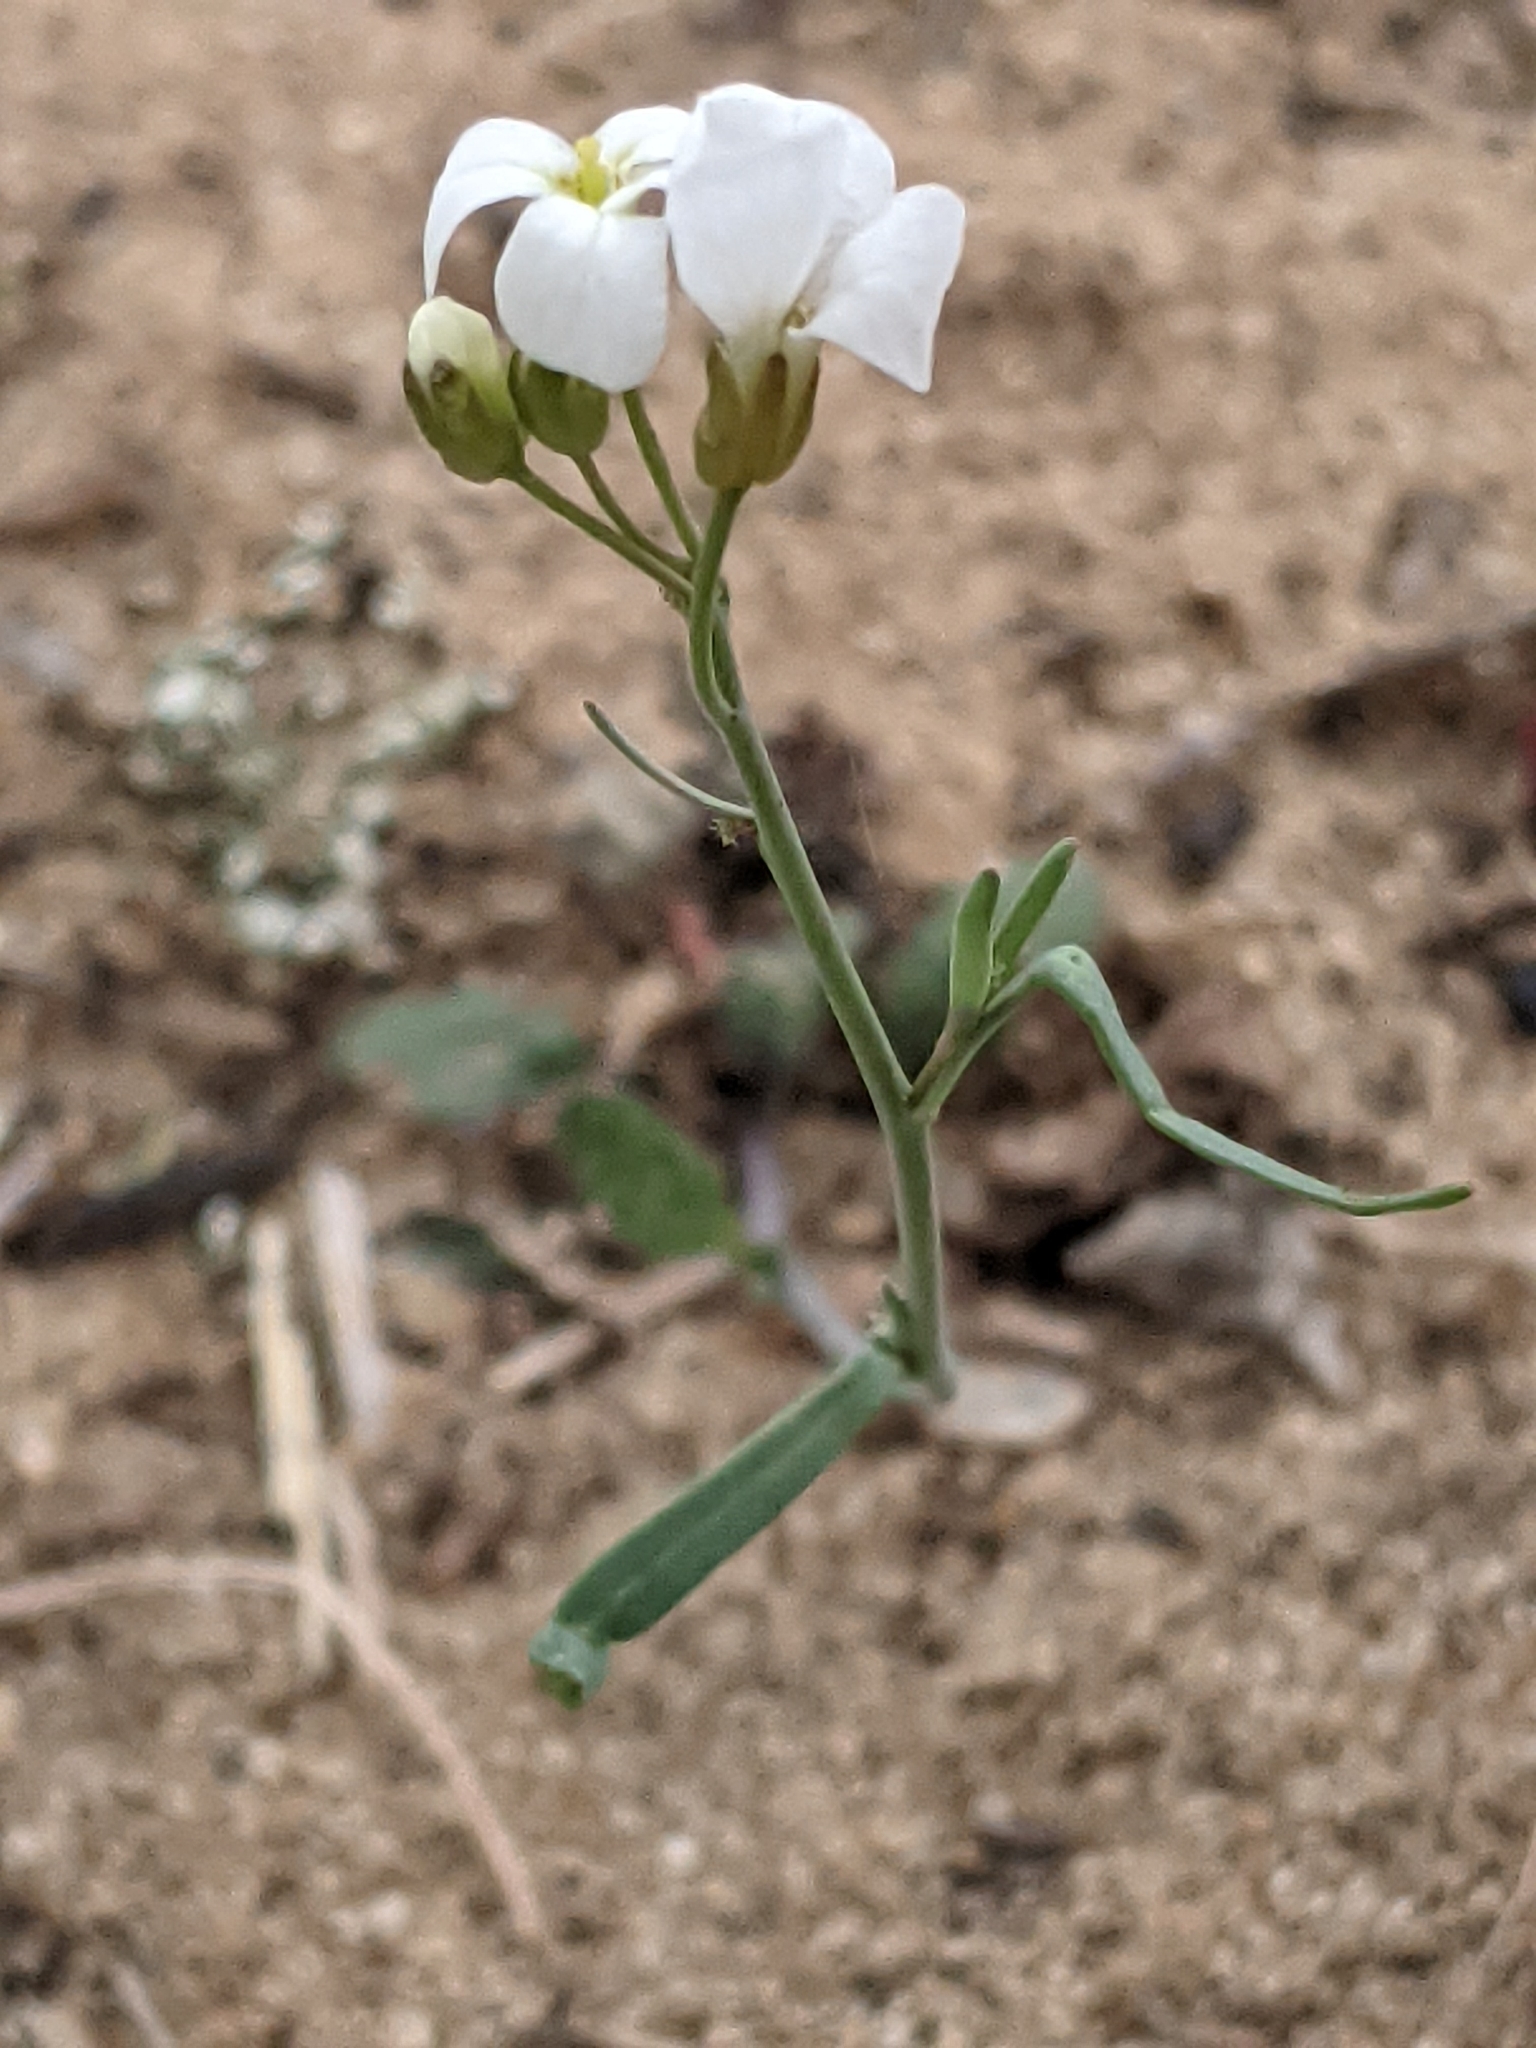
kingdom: Plantae
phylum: Tracheophyta
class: Magnoliopsida
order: Brassicales
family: Brassicaceae
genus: Arabidopsis
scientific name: Arabidopsis lyrata
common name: Lyrate rockcress
